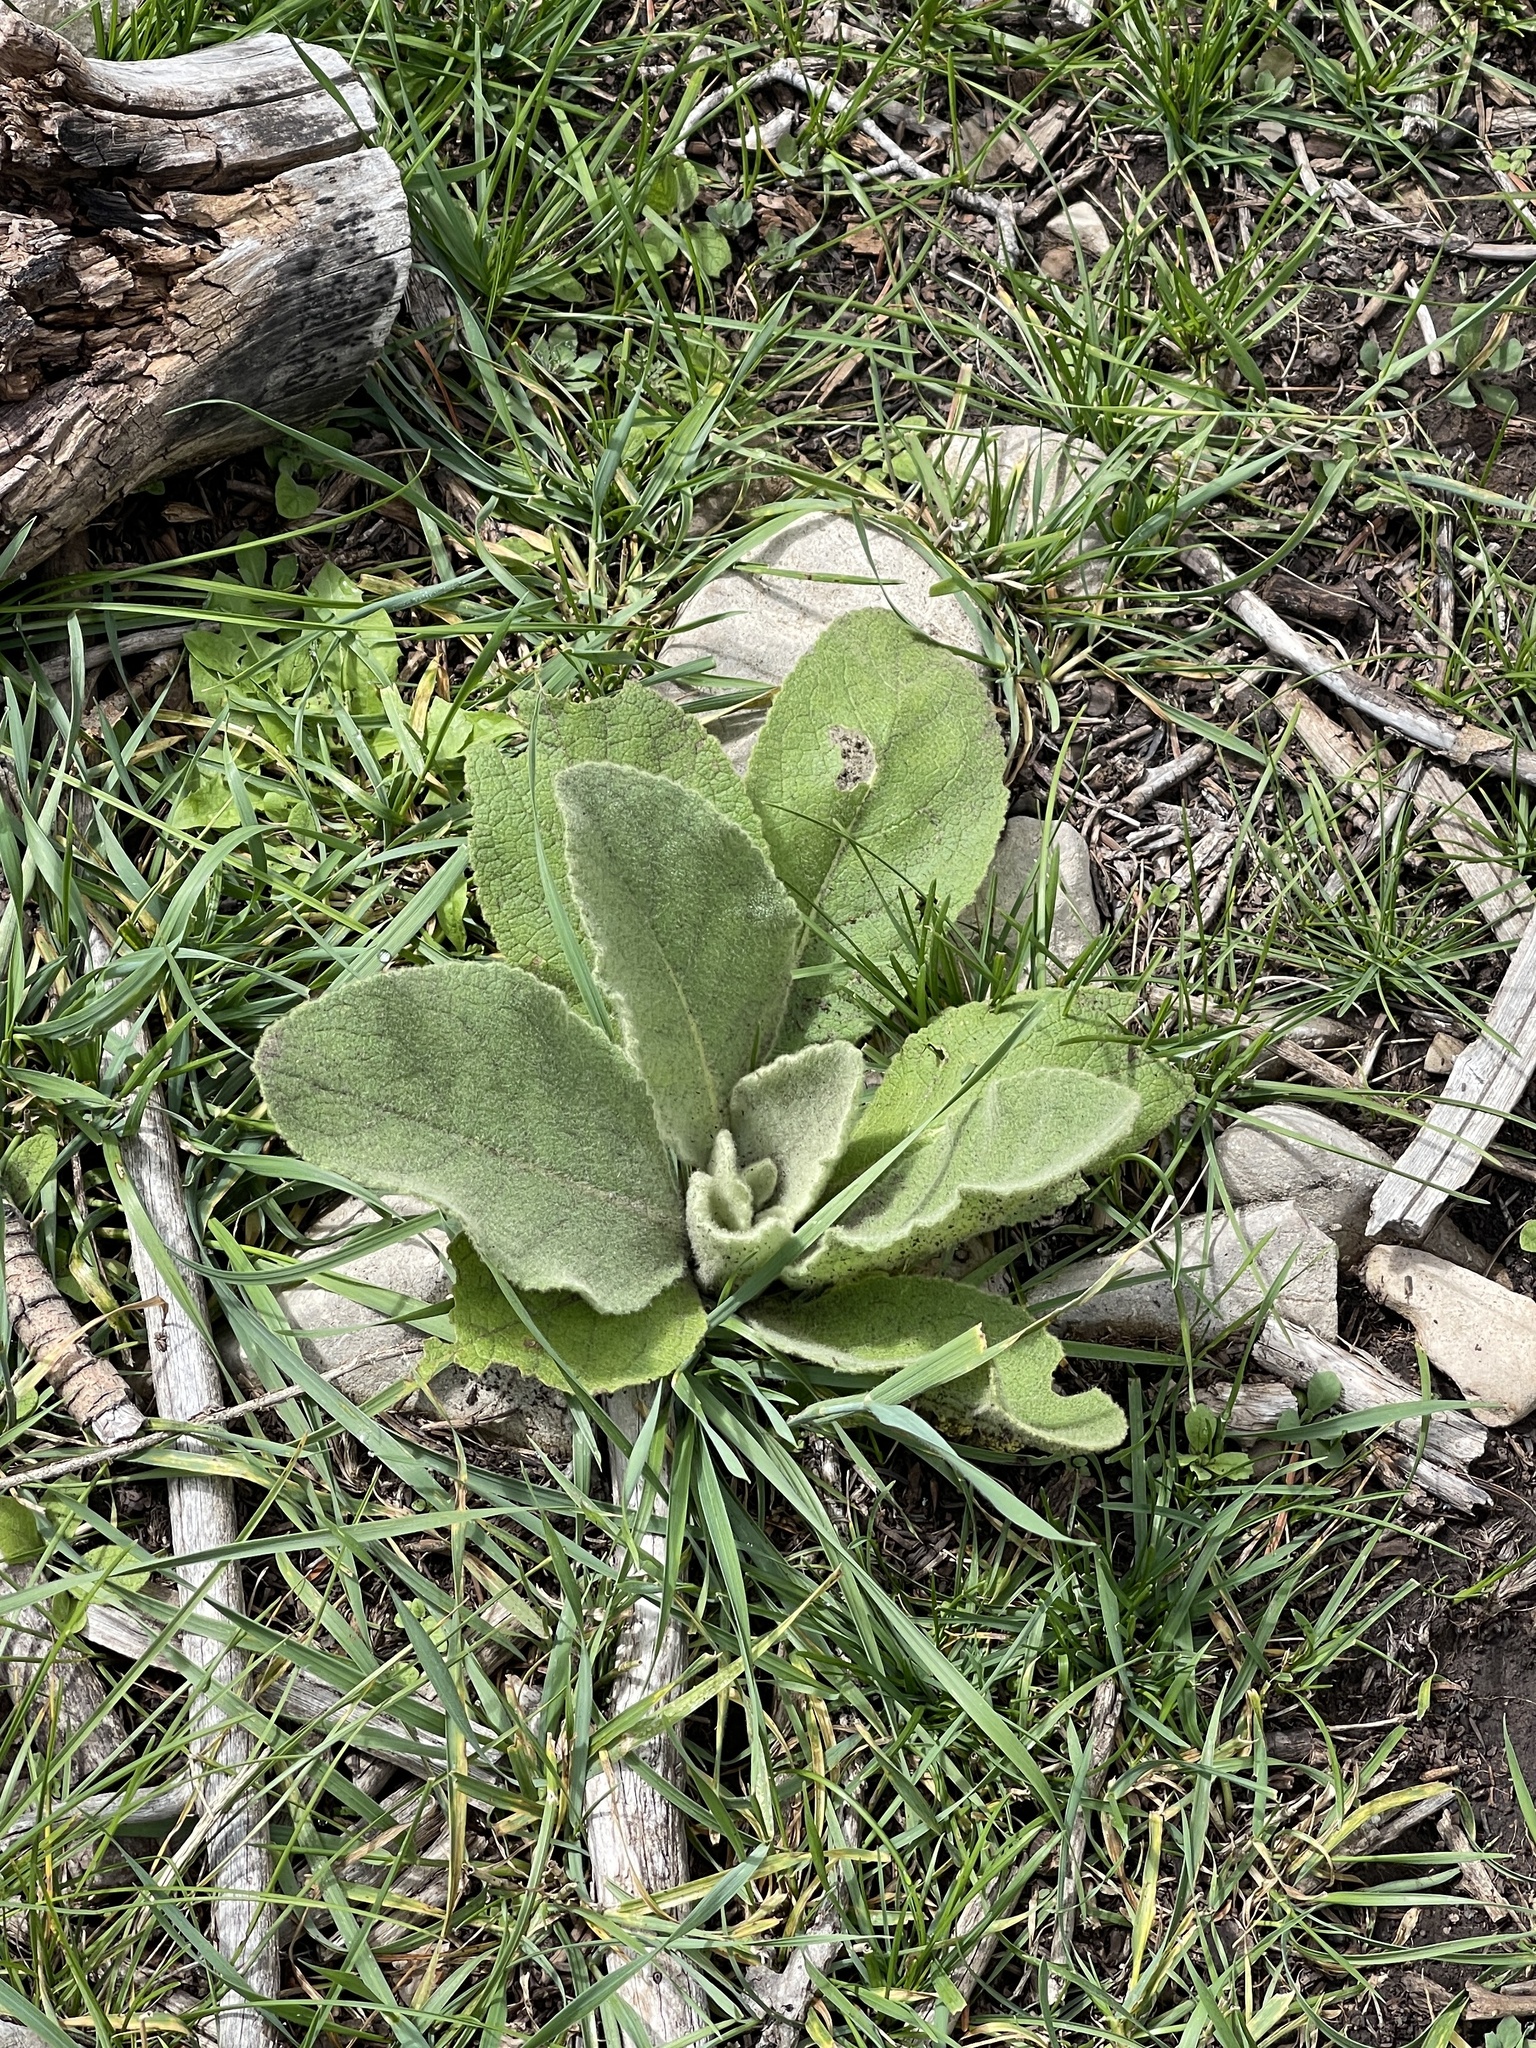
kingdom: Plantae
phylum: Tracheophyta
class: Magnoliopsida
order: Lamiales
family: Scrophulariaceae
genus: Verbascum
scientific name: Verbascum thapsus
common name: Common mullein
